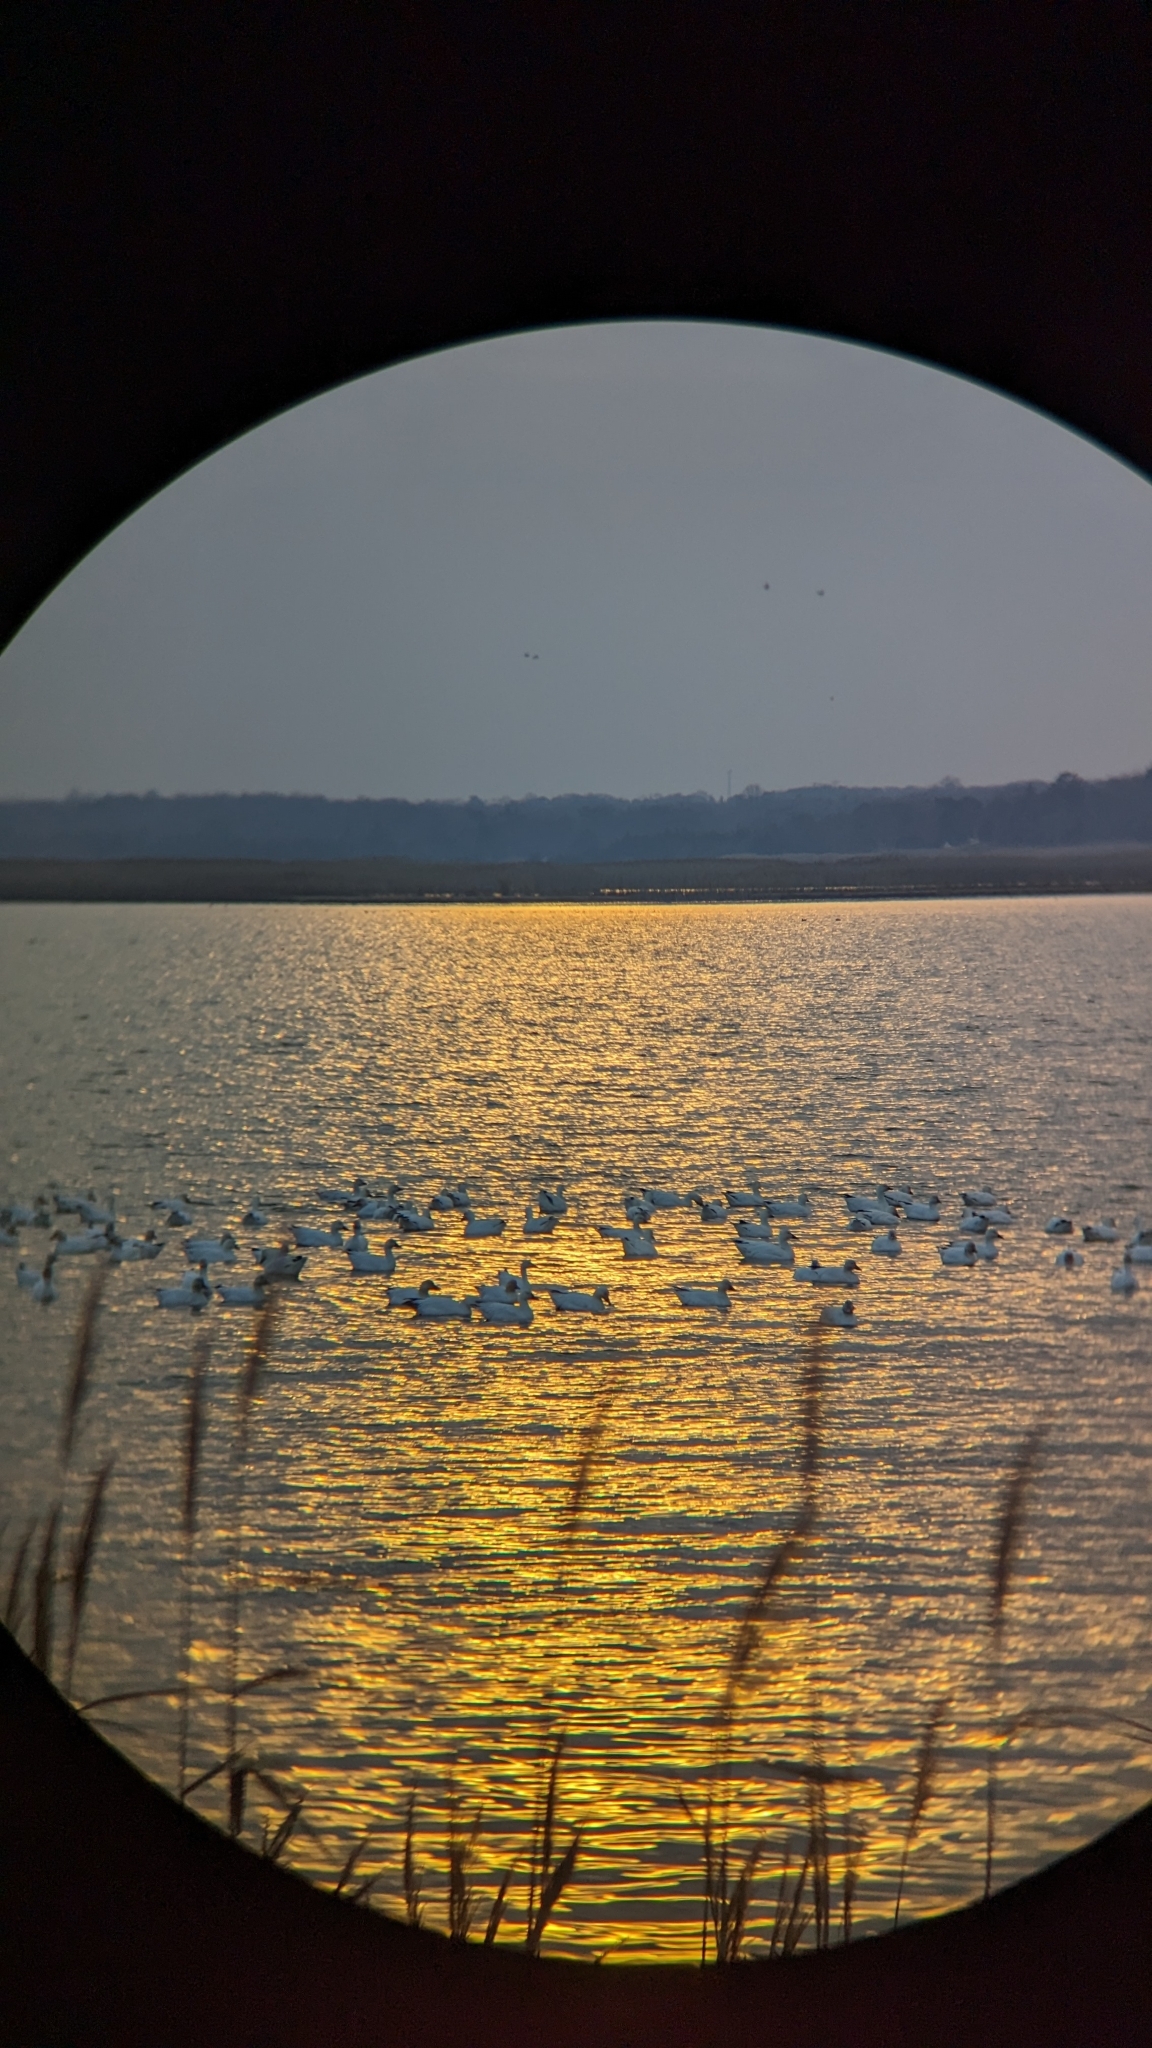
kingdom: Animalia
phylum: Chordata
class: Aves
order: Anseriformes
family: Anatidae
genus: Anser
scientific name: Anser caerulescens
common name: Snow goose
